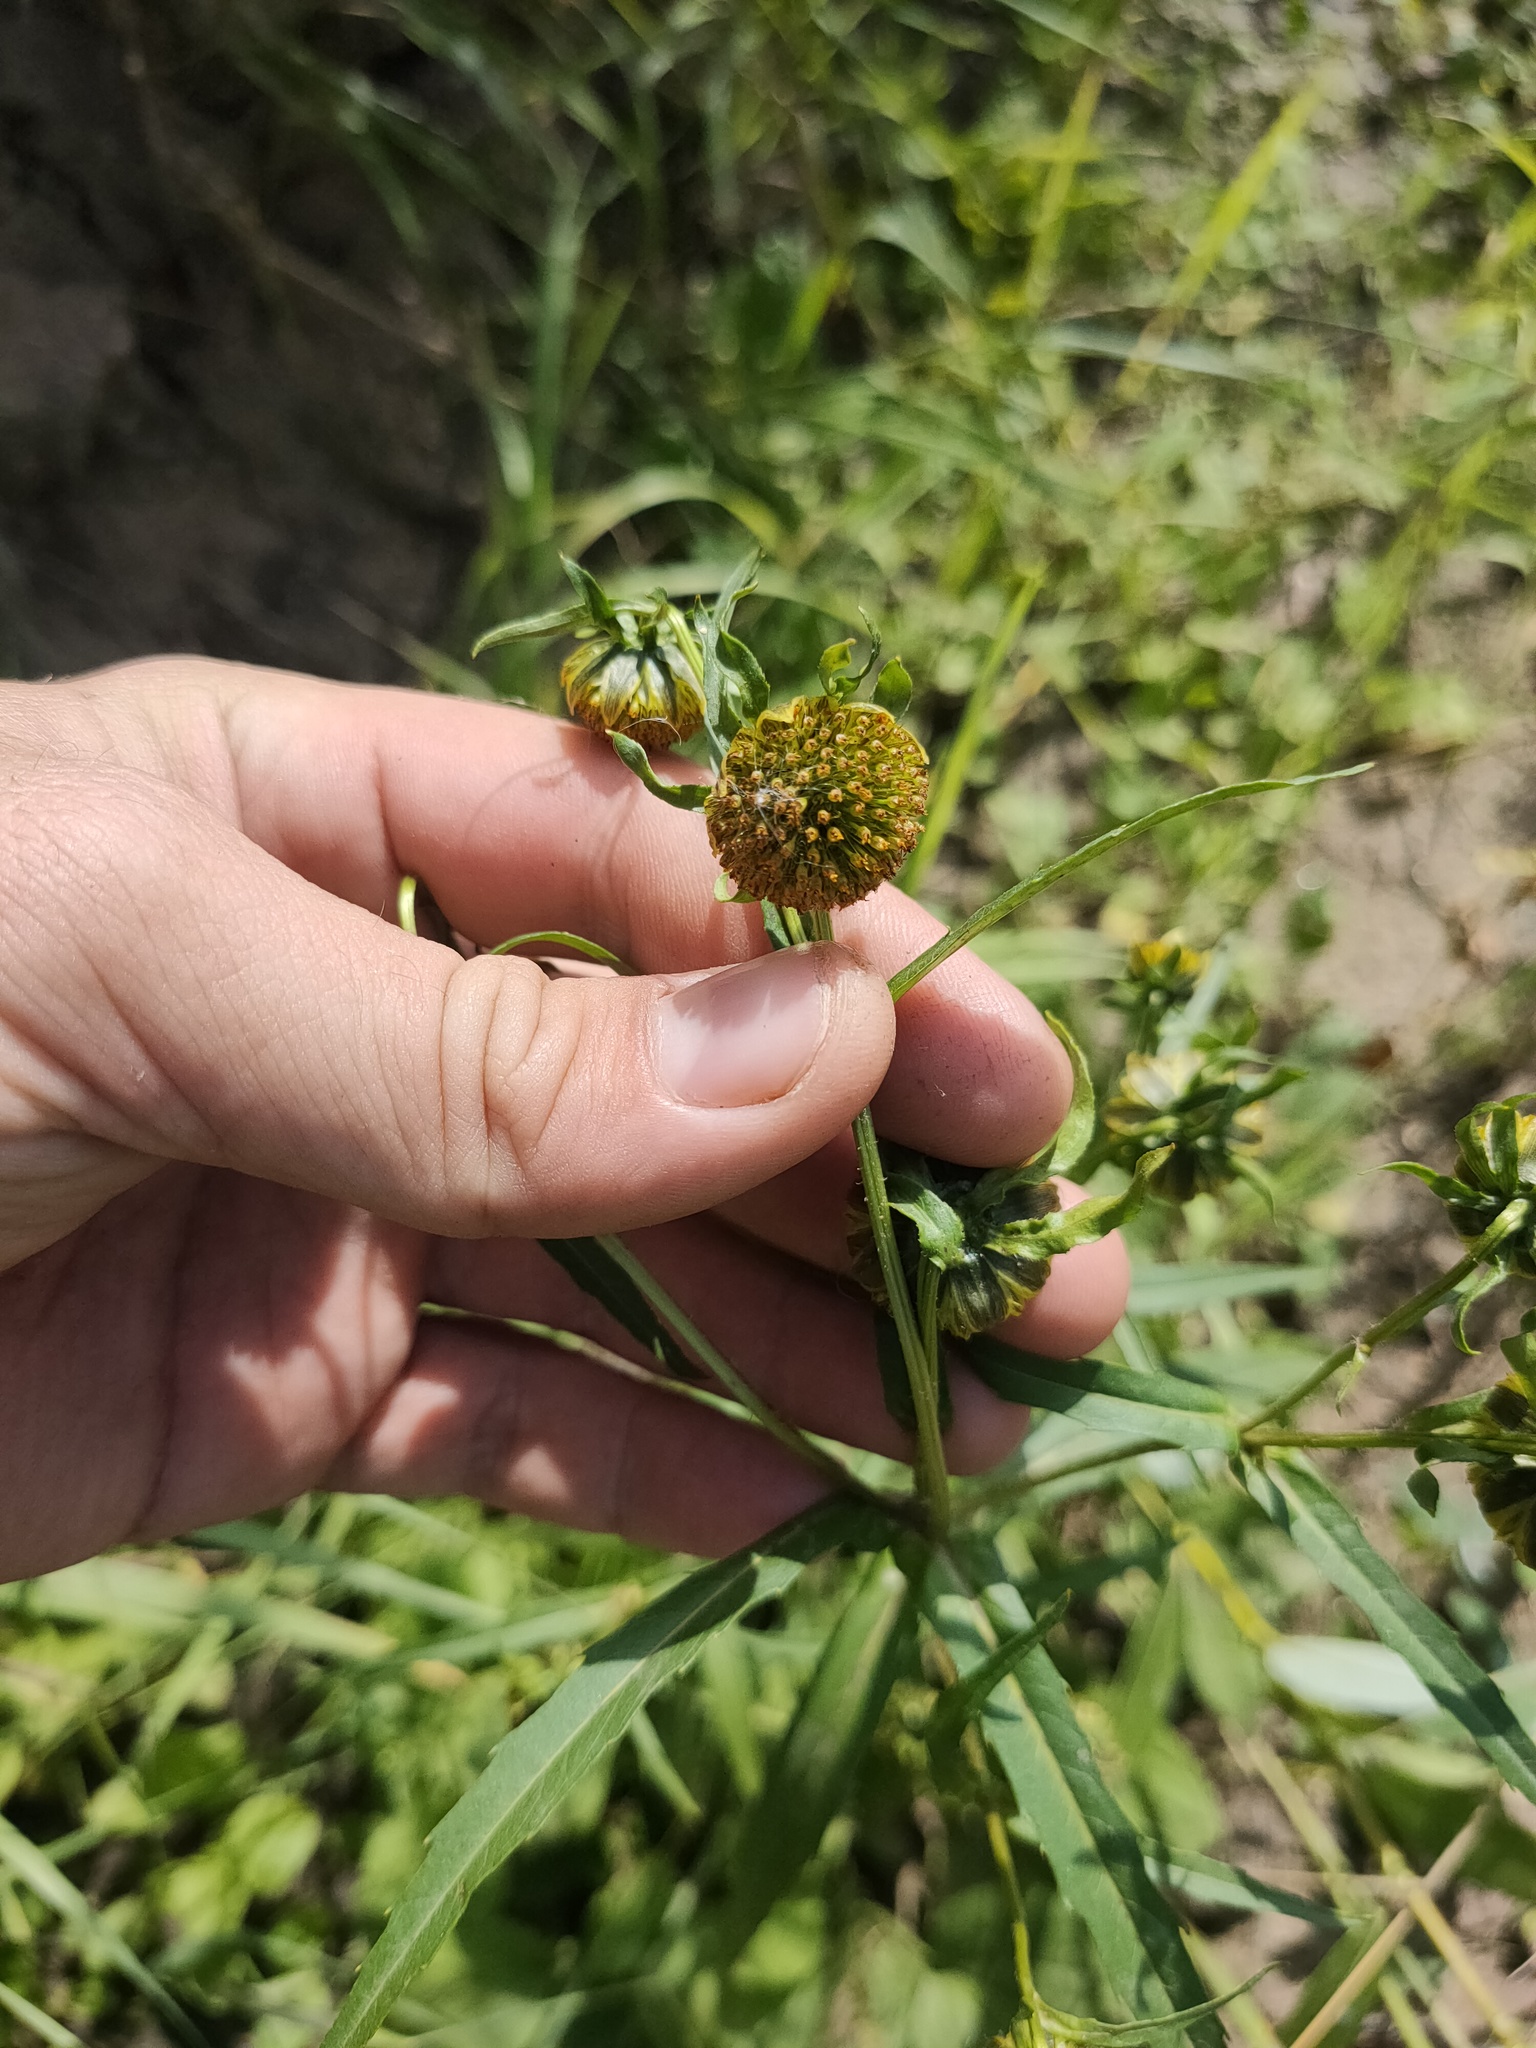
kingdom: Plantae
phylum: Tracheophyta
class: Magnoliopsida
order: Asterales
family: Asteraceae
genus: Bidens
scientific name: Bidens cernua
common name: Nodding bur-marigold
